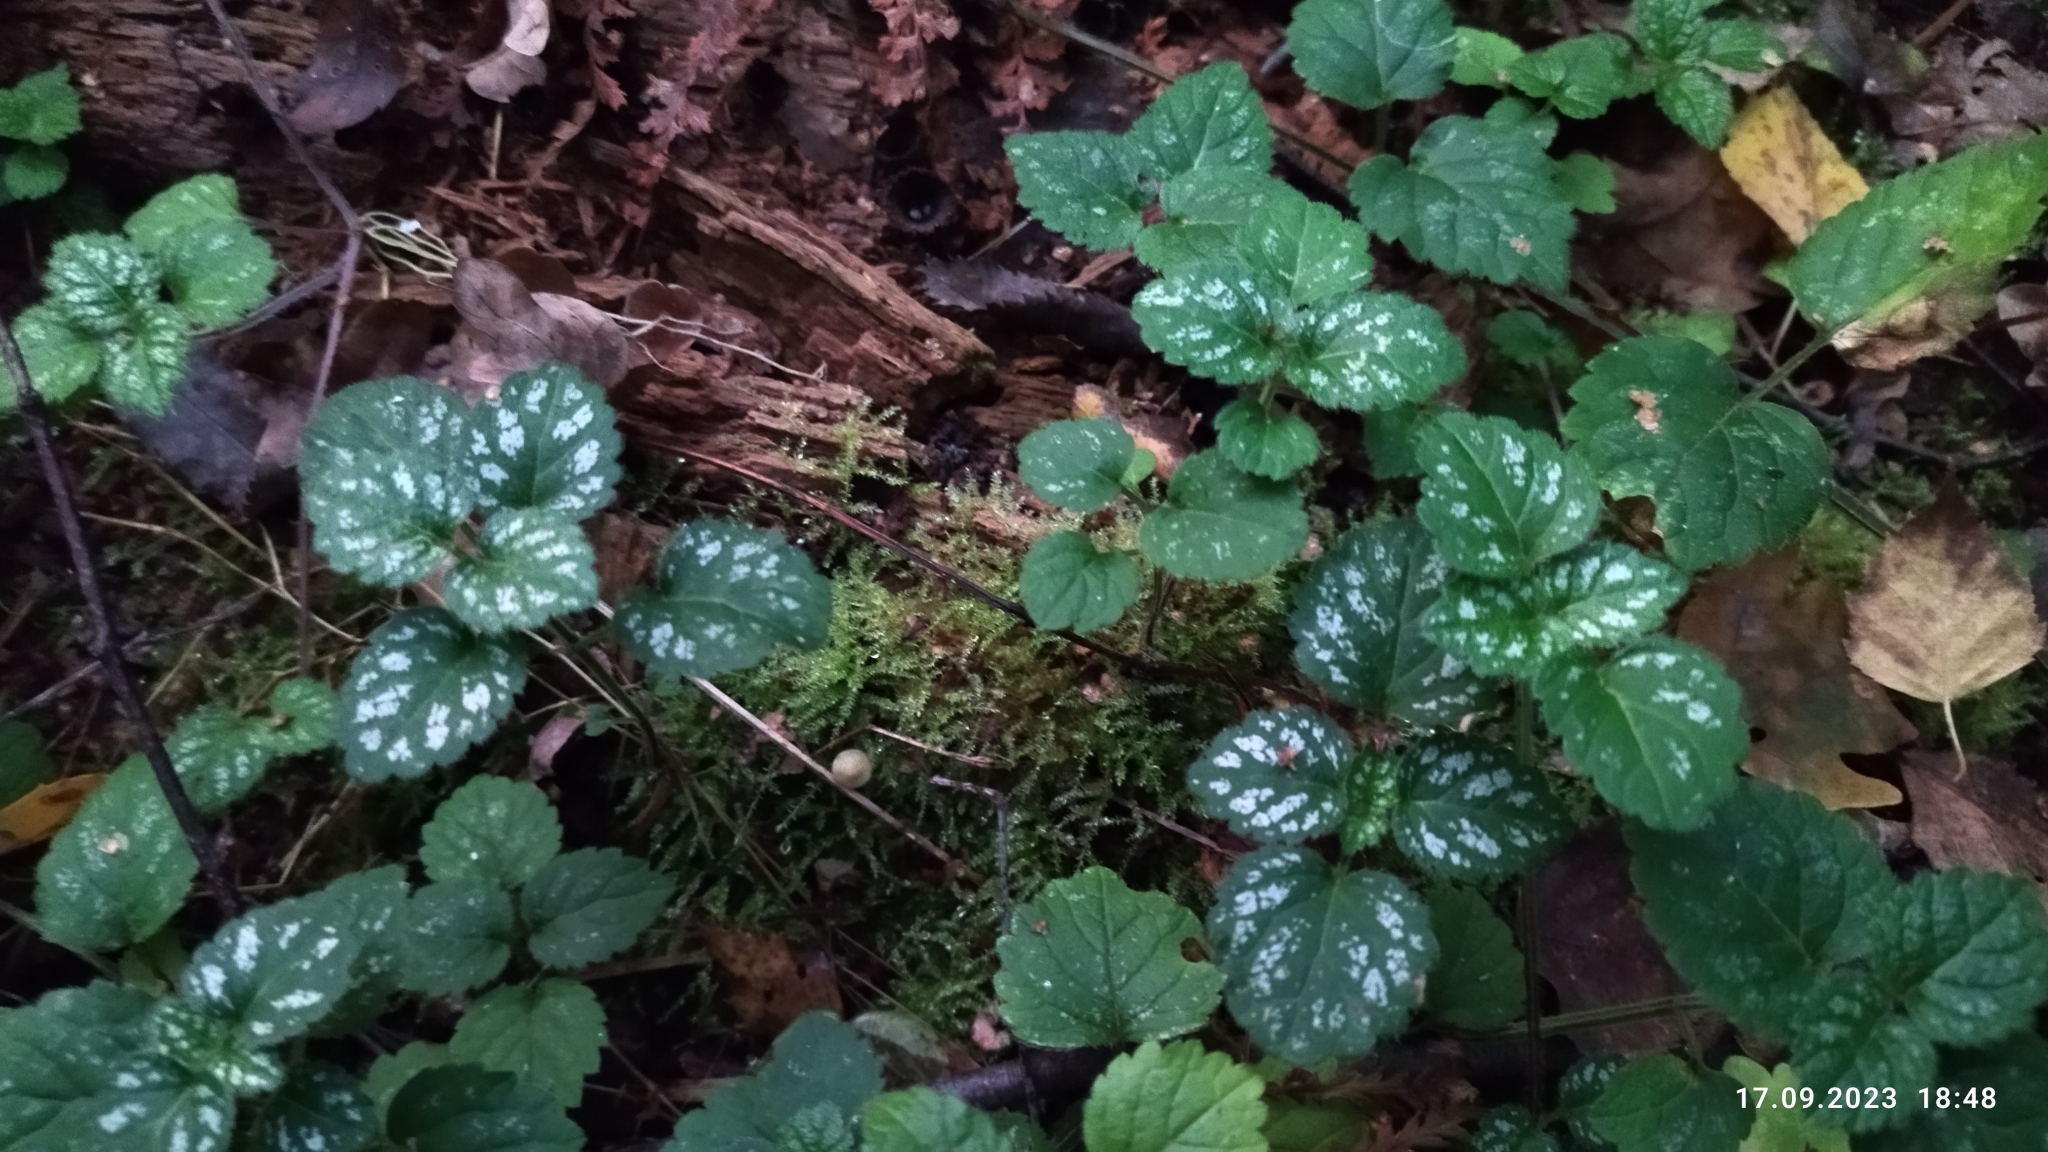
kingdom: Plantae
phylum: Tracheophyta
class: Magnoliopsida
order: Lamiales
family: Lamiaceae
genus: Lamium
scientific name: Lamium galeobdolon
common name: Yellow archangel
